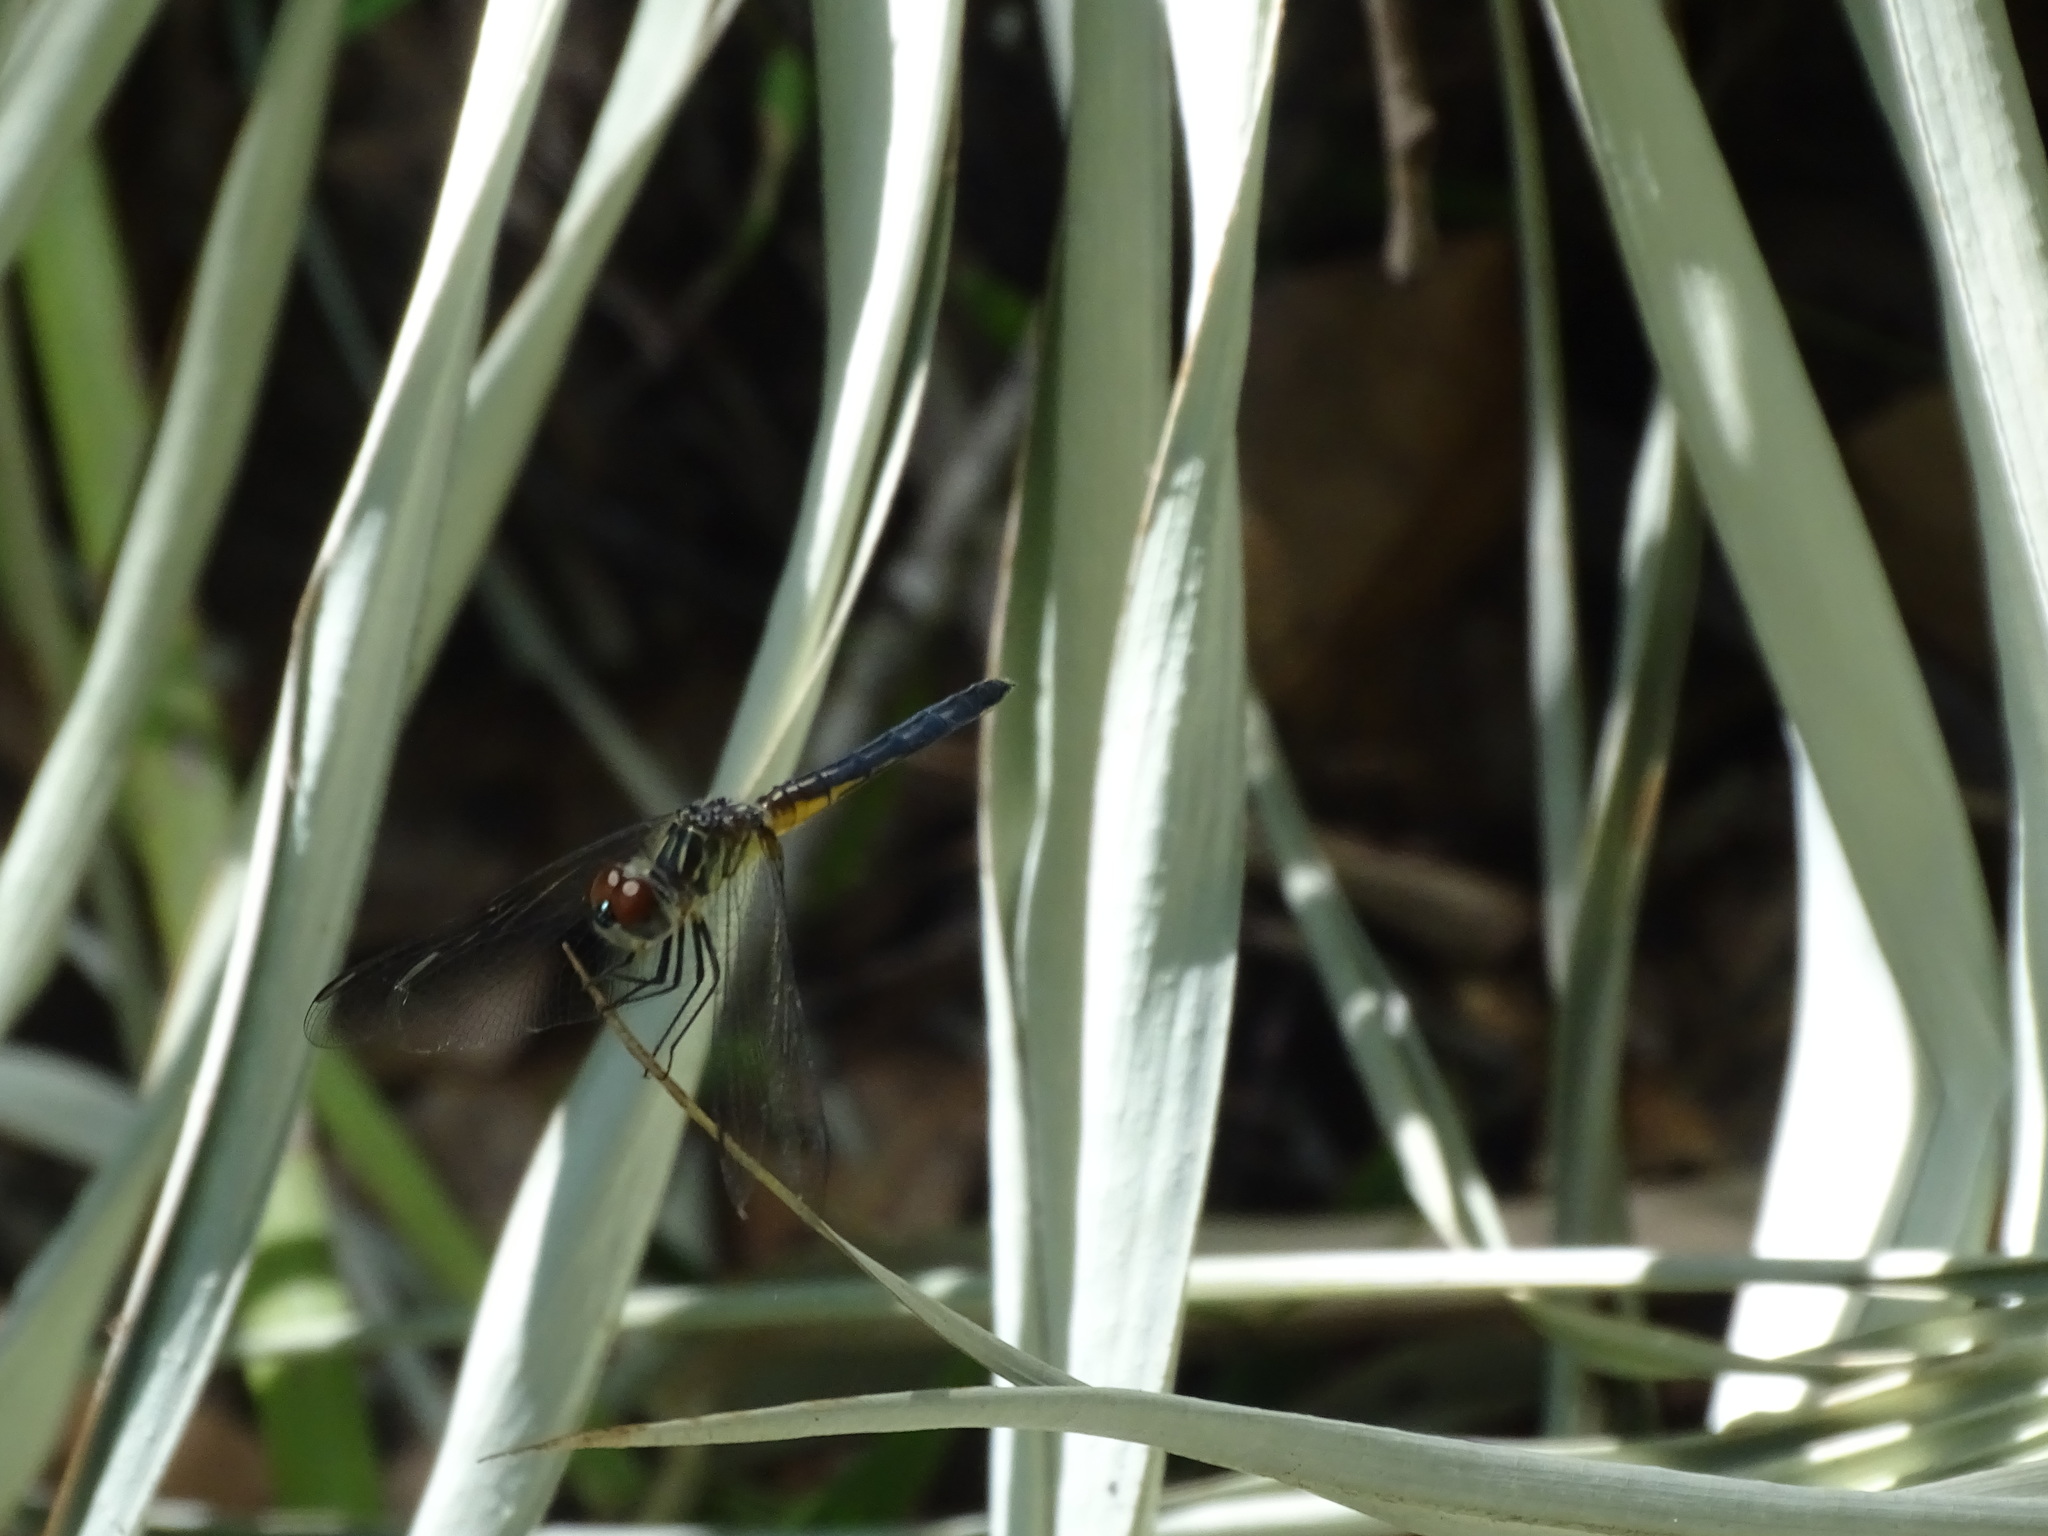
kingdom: Animalia
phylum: Arthropoda
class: Insecta
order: Odonata
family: Libellulidae
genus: Pachydiplax
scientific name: Pachydiplax longipennis
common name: Blue dasher
